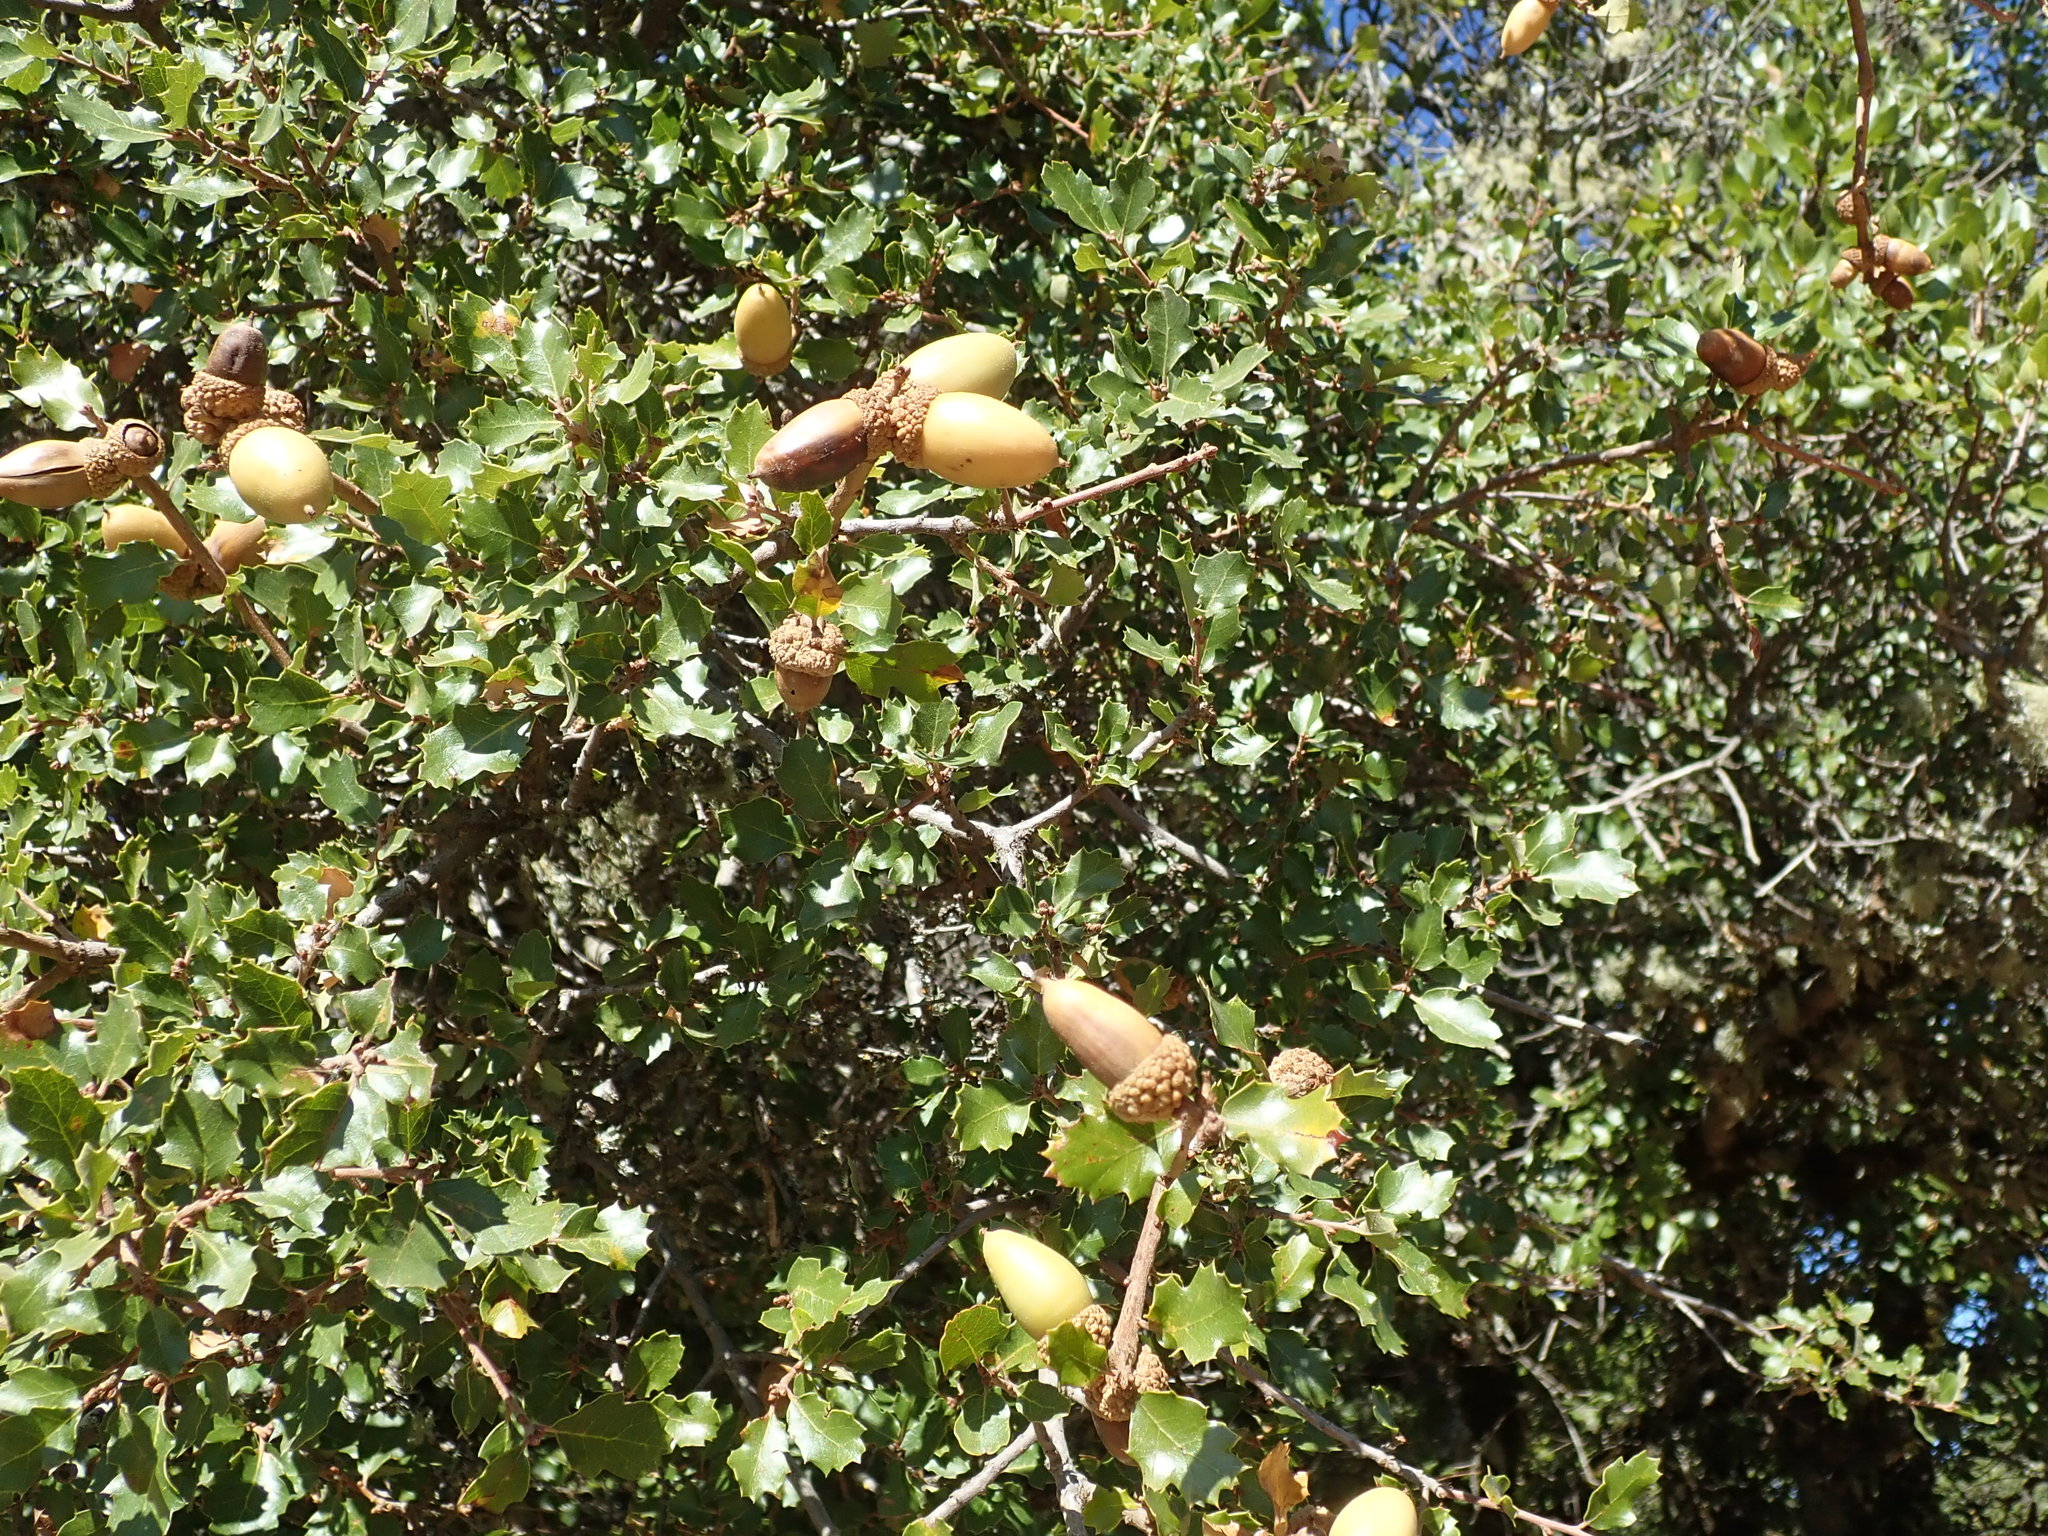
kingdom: Plantae
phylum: Tracheophyta
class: Magnoliopsida
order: Fagales
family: Fagaceae
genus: Quercus
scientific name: Quercus berberidifolia
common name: California scrub oak
